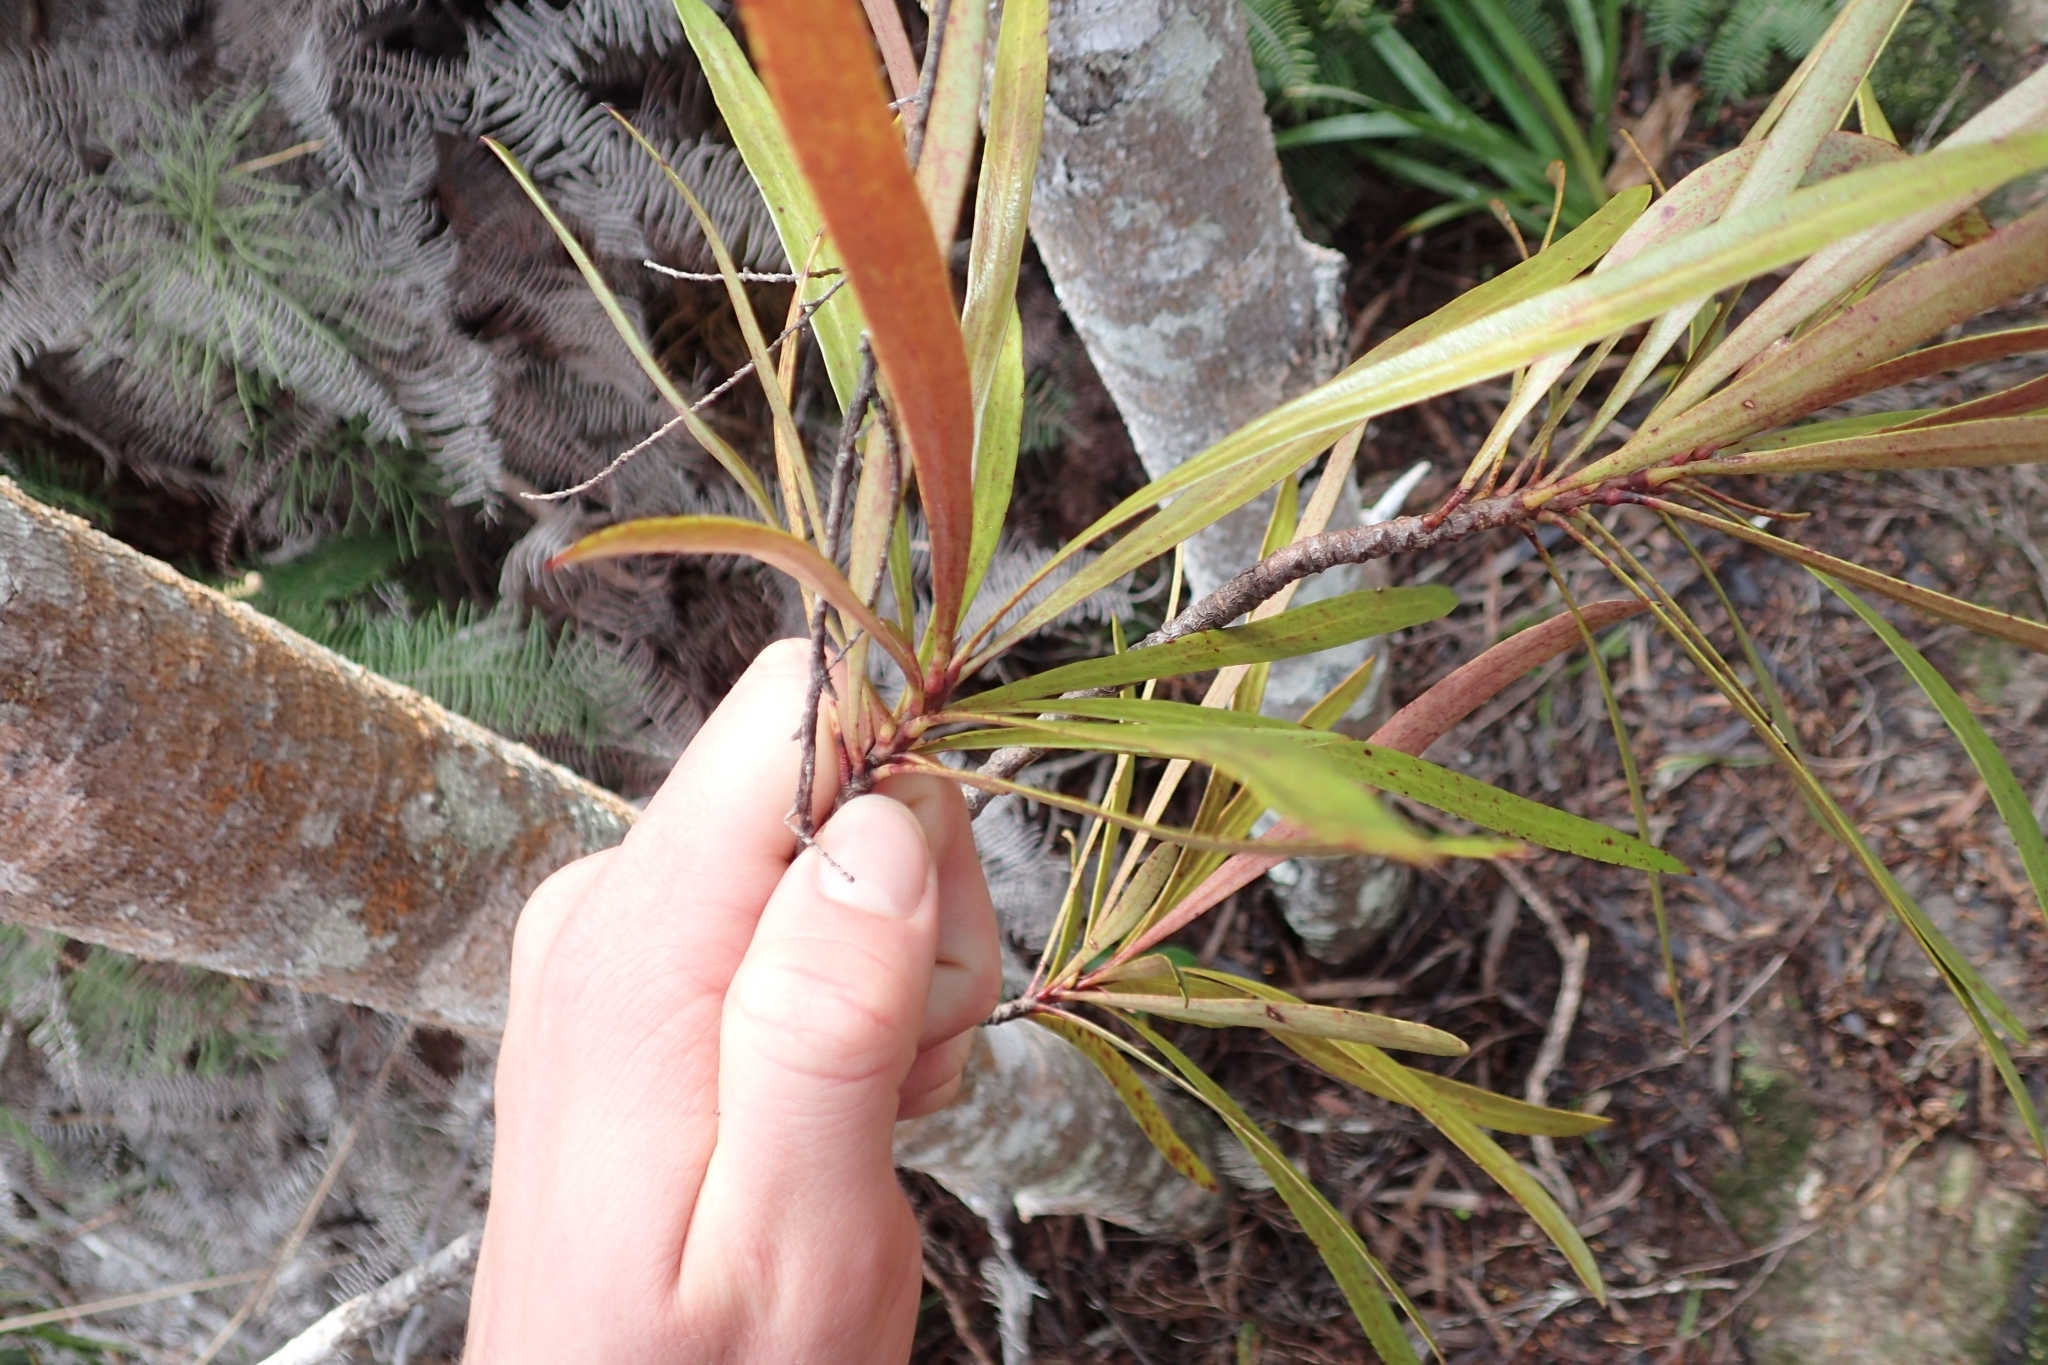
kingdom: Plantae
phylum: Tracheophyta
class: Magnoliopsida
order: Proteales
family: Proteaceae
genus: Toronia
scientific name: Toronia toru
